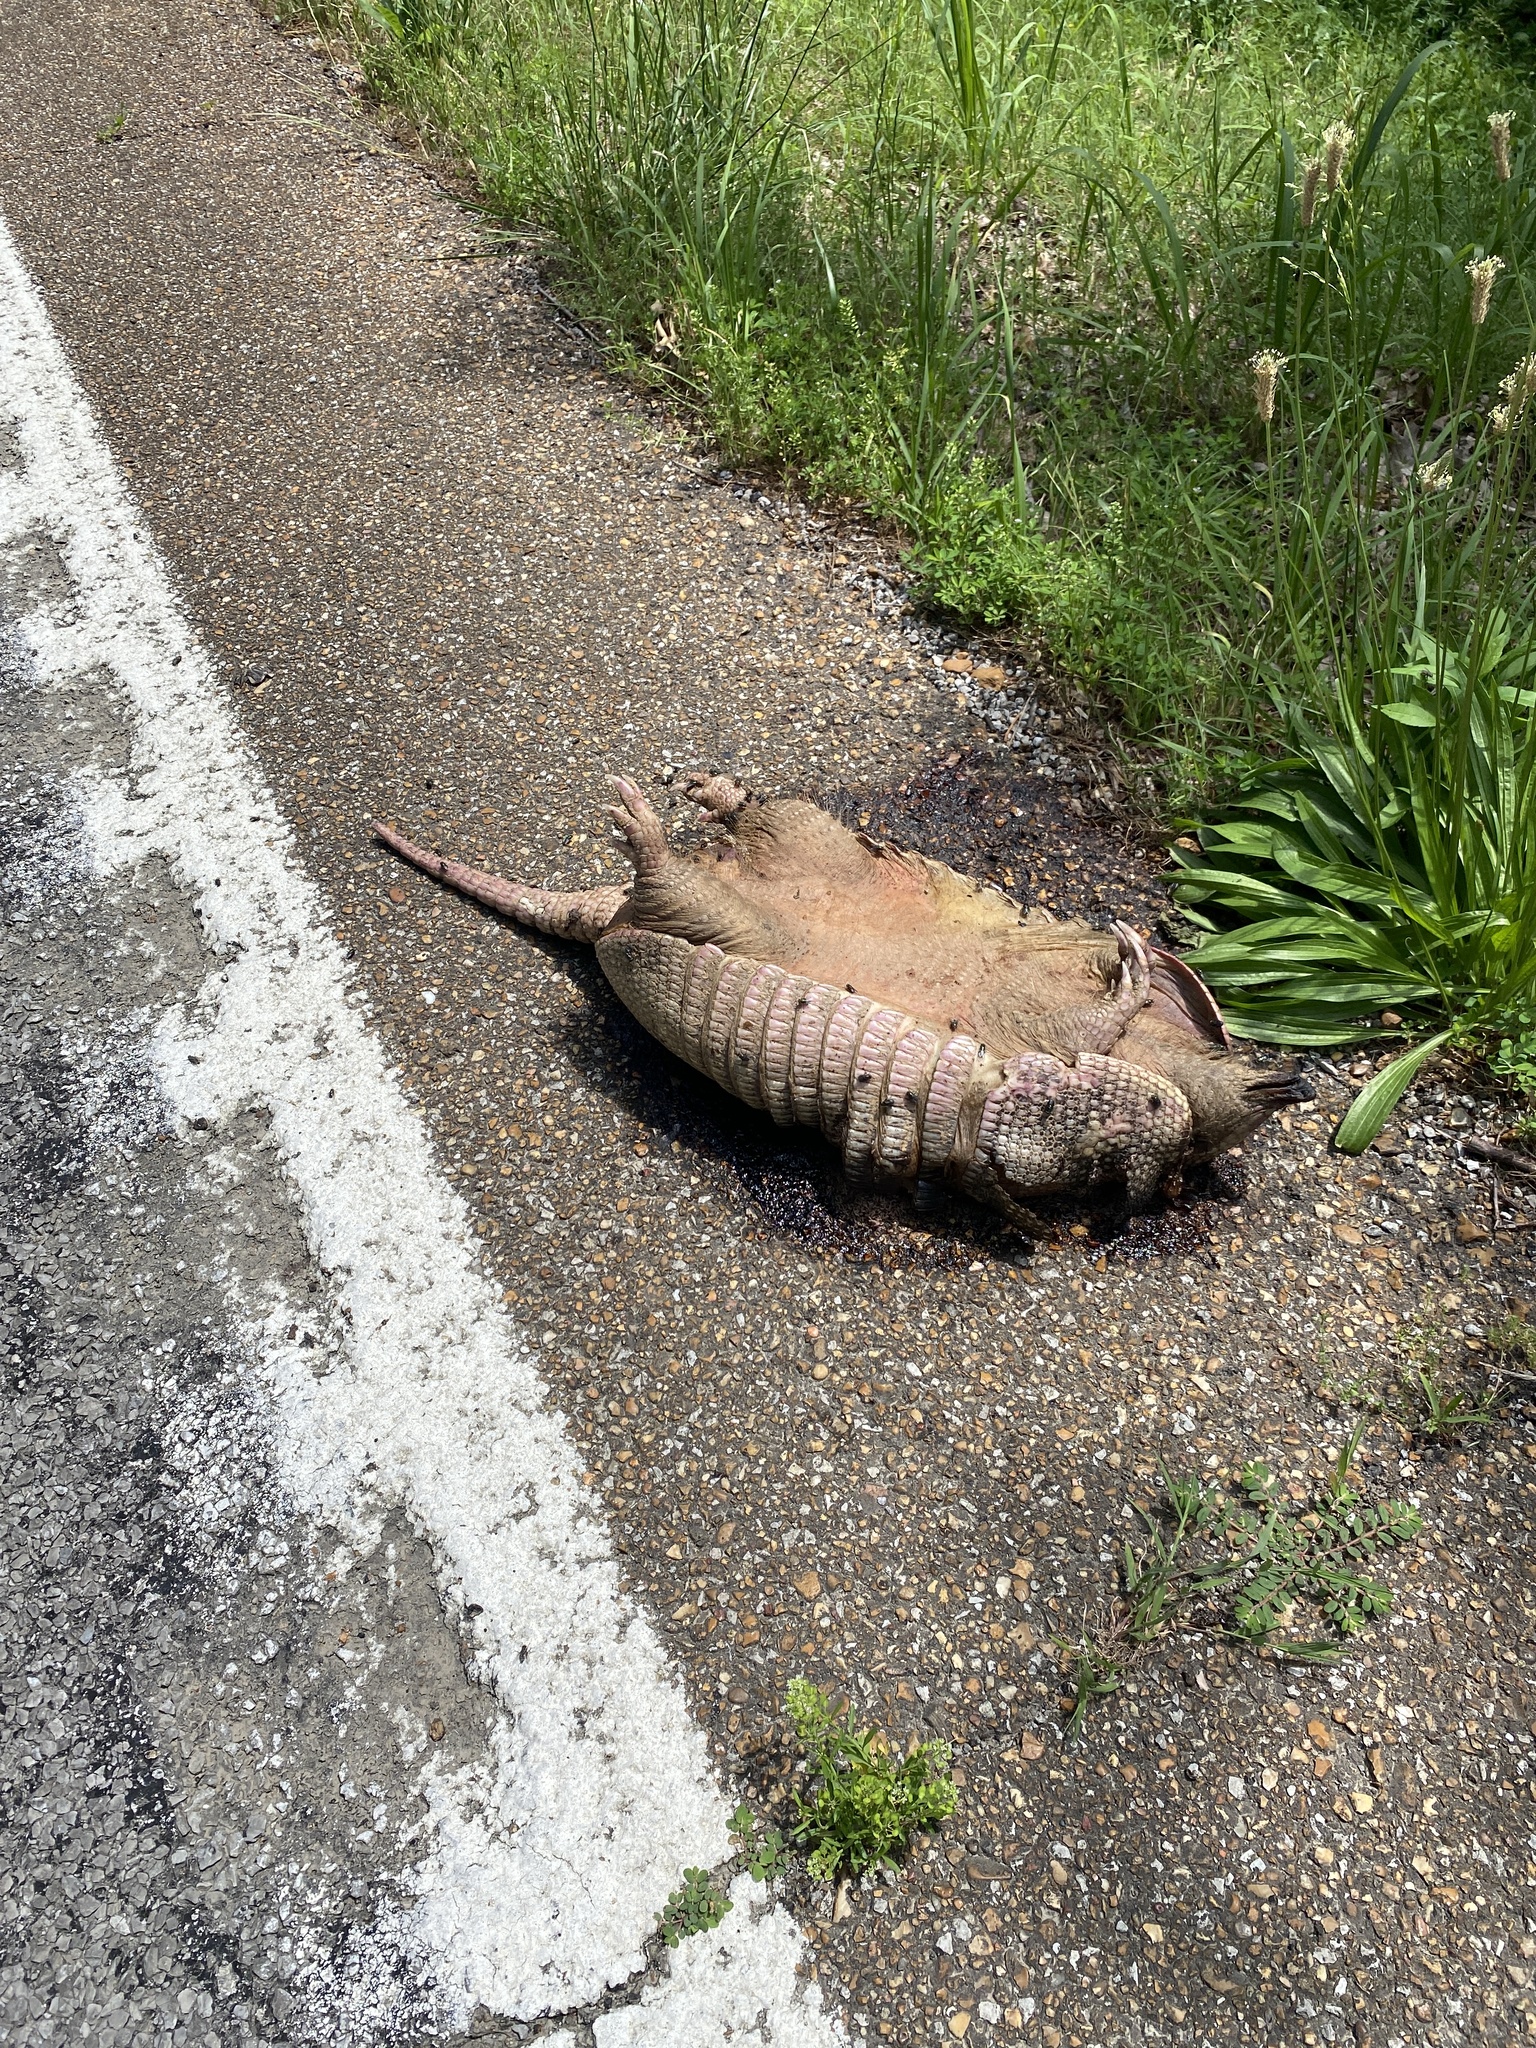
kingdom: Animalia
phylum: Chordata
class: Mammalia
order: Cingulata
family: Dasypodidae
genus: Dasypus
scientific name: Dasypus novemcinctus
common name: Nine-banded armadillo
